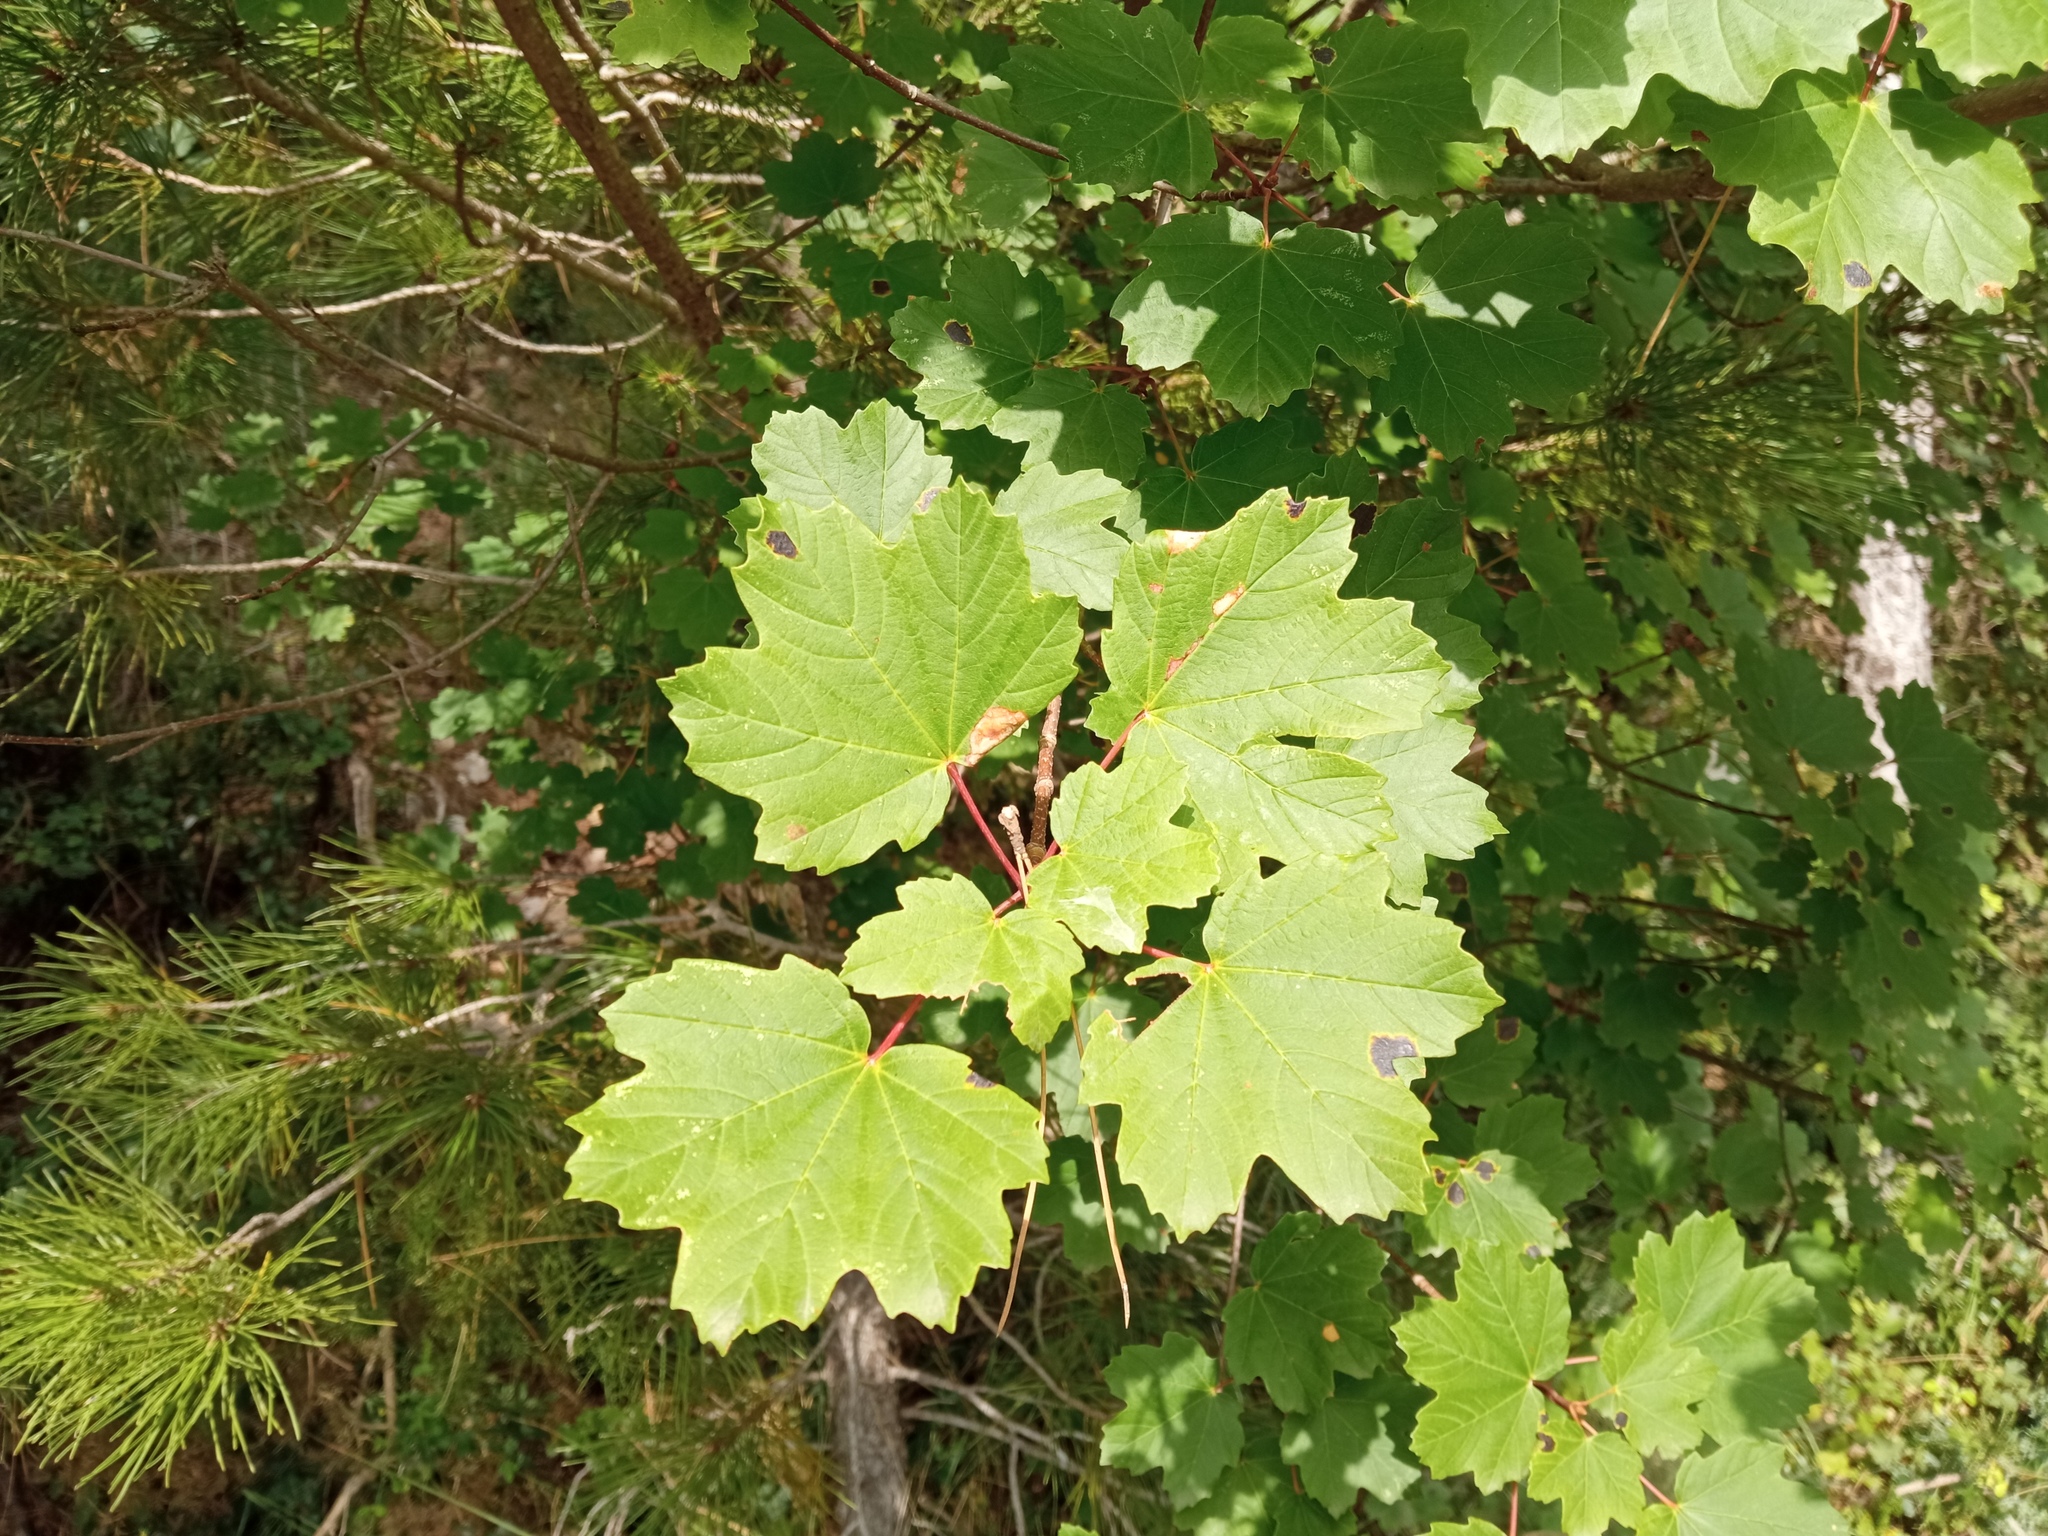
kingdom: Plantae
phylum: Tracheophyta
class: Magnoliopsida
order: Sapindales
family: Sapindaceae
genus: Acer
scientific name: Acer granatense
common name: Spanish maple
